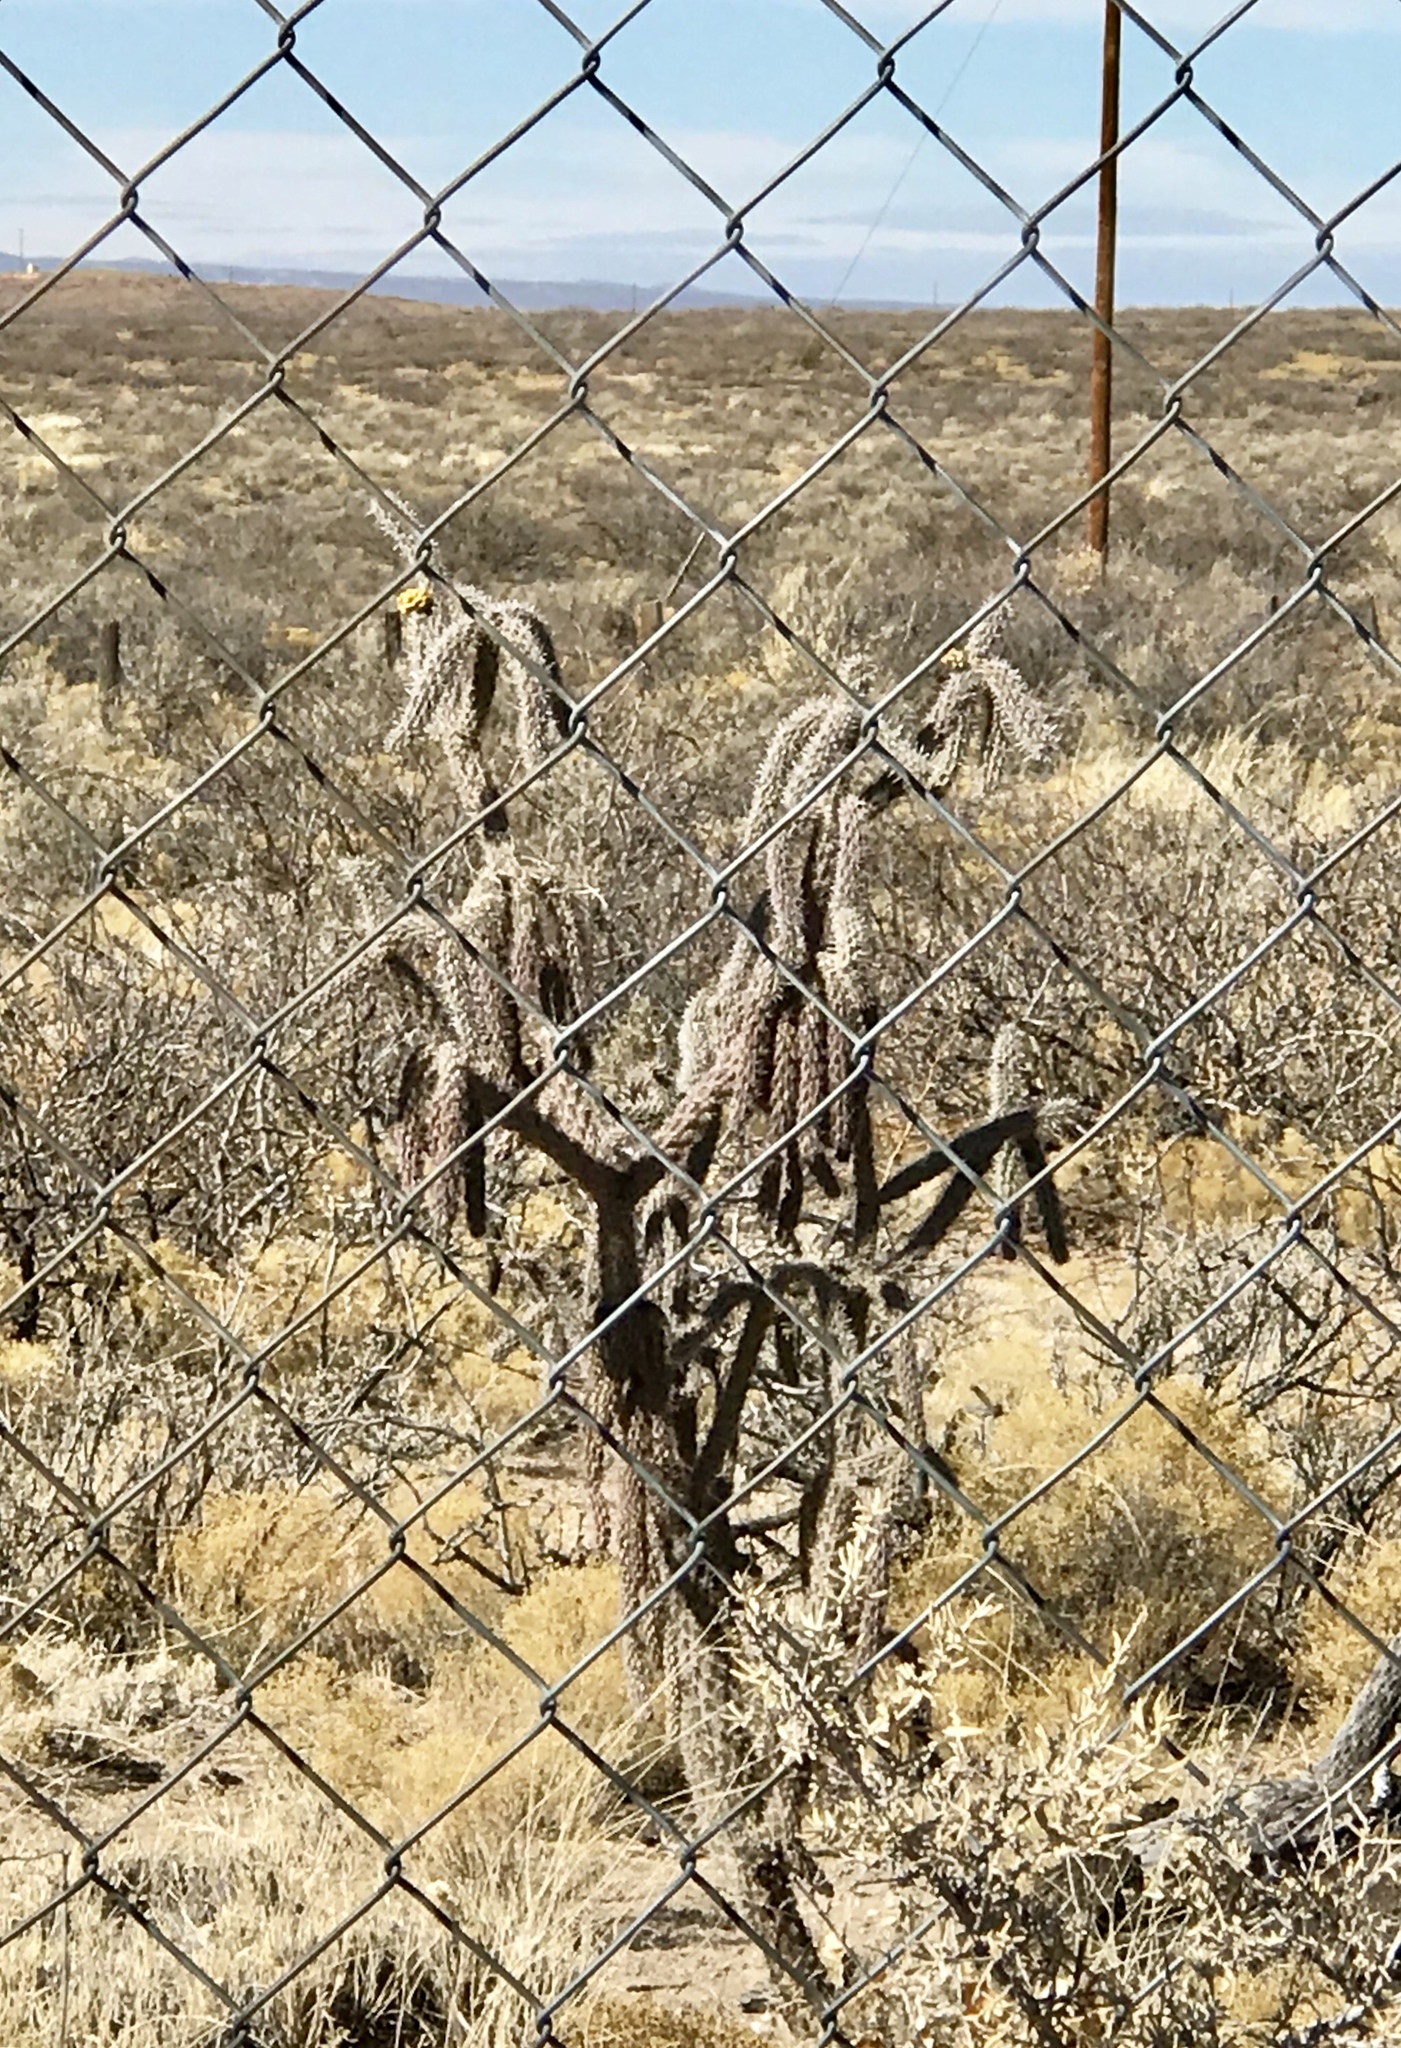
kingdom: Plantae
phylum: Tracheophyta
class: Magnoliopsida
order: Caryophyllales
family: Cactaceae
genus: Cylindropuntia
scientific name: Cylindropuntia imbricata
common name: Candelabrum cactus
